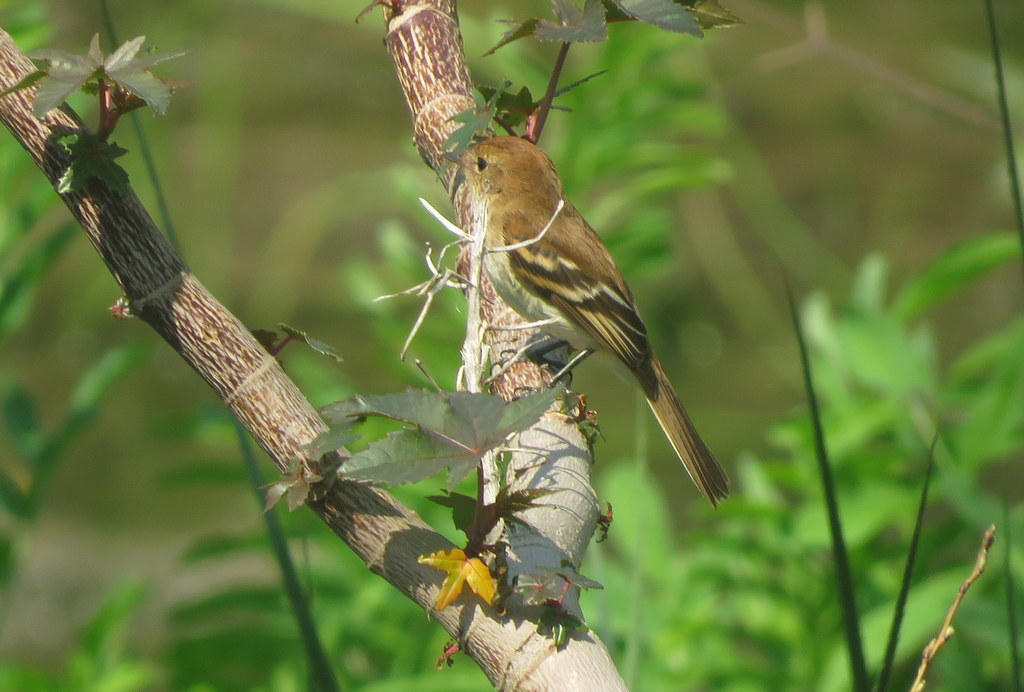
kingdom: Animalia
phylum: Chordata
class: Aves
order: Passeriformes
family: Tyrannidae
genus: Myiophobus
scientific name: Myiophobus fasciatus
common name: Bran-colored flycatcher
